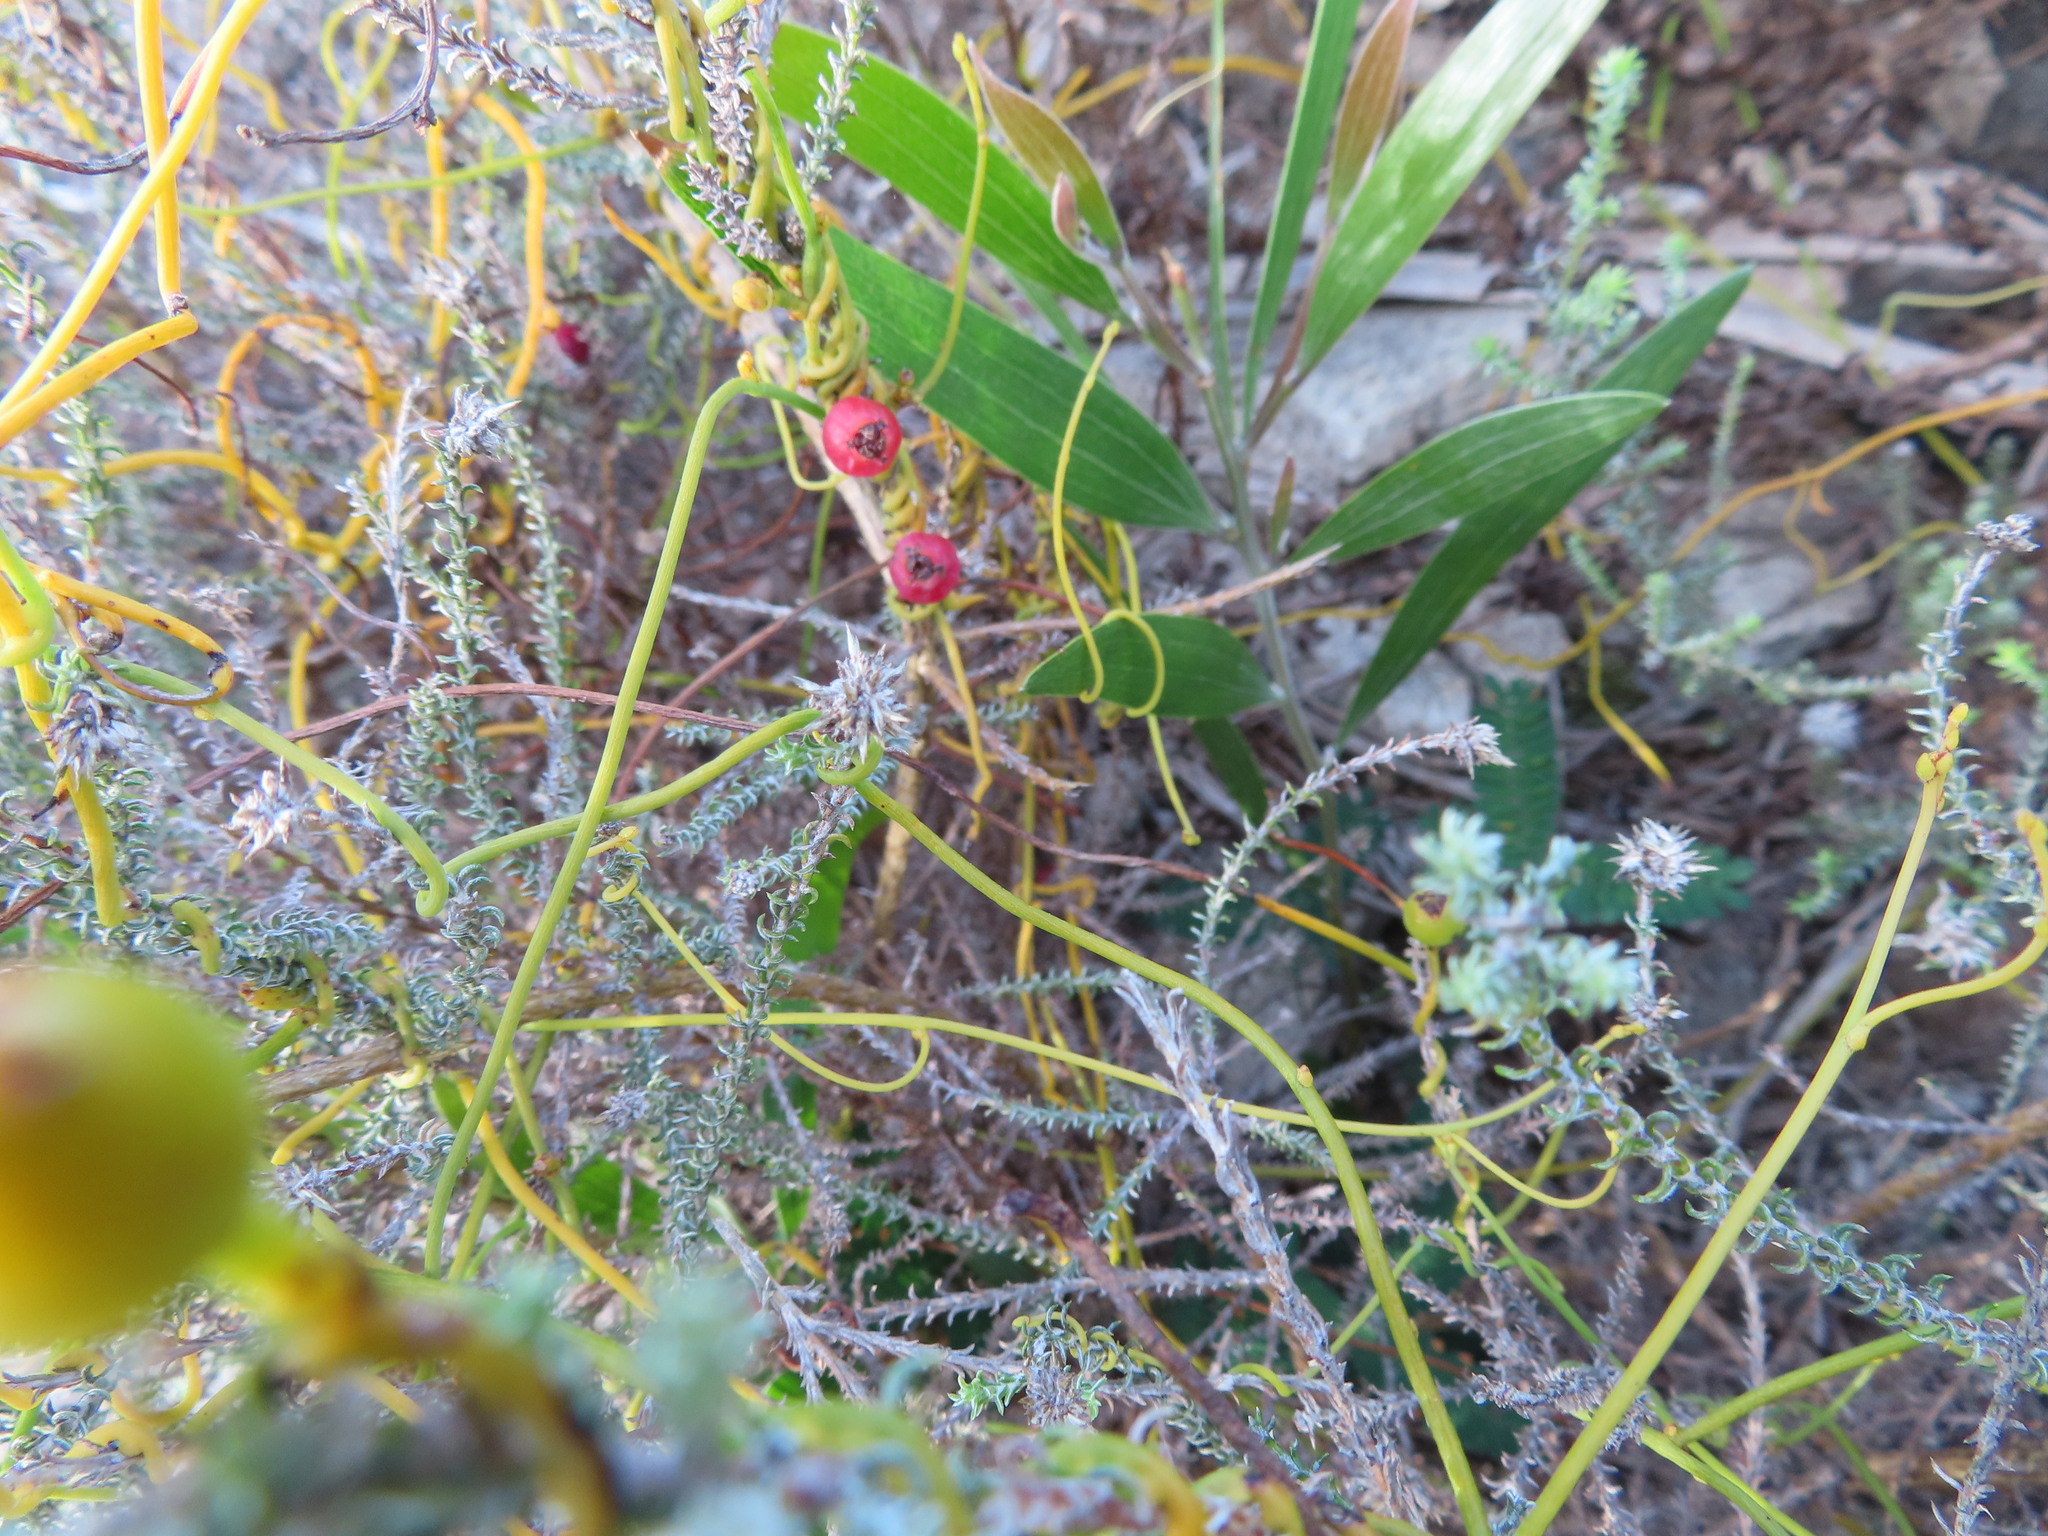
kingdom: Plantae
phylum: Tracheophyta
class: Magnoliopsida
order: Fabales
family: Fabaceae
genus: Acacia
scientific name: Acacia longifolia
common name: Sydney golden wattle
